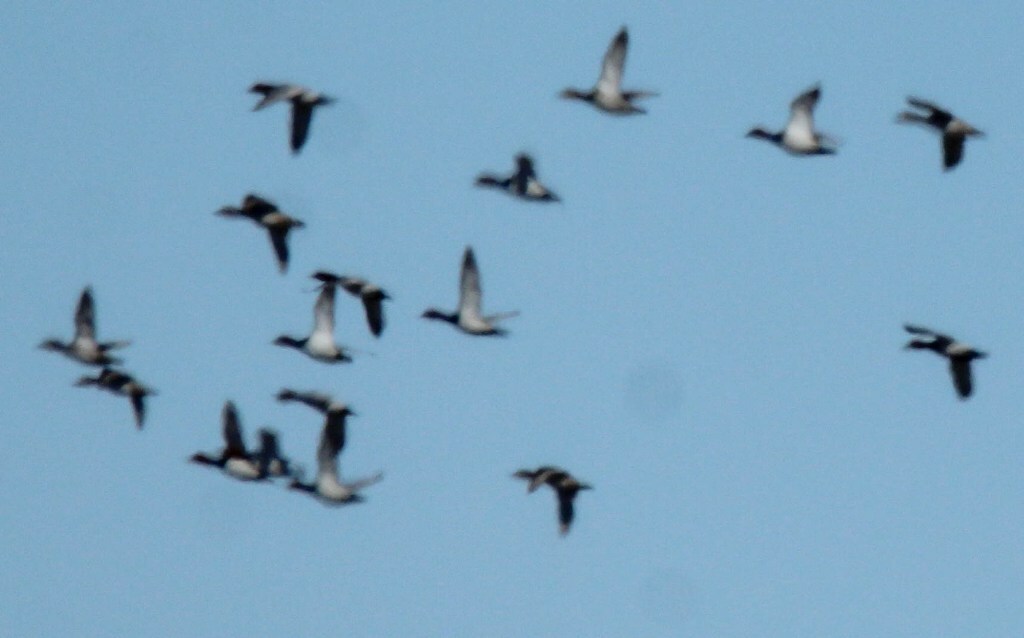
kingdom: Animalia
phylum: Chordata
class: Aves
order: Anseriformes
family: Anatidae
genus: Aythya
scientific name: Aythya ferina
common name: Common pochard
